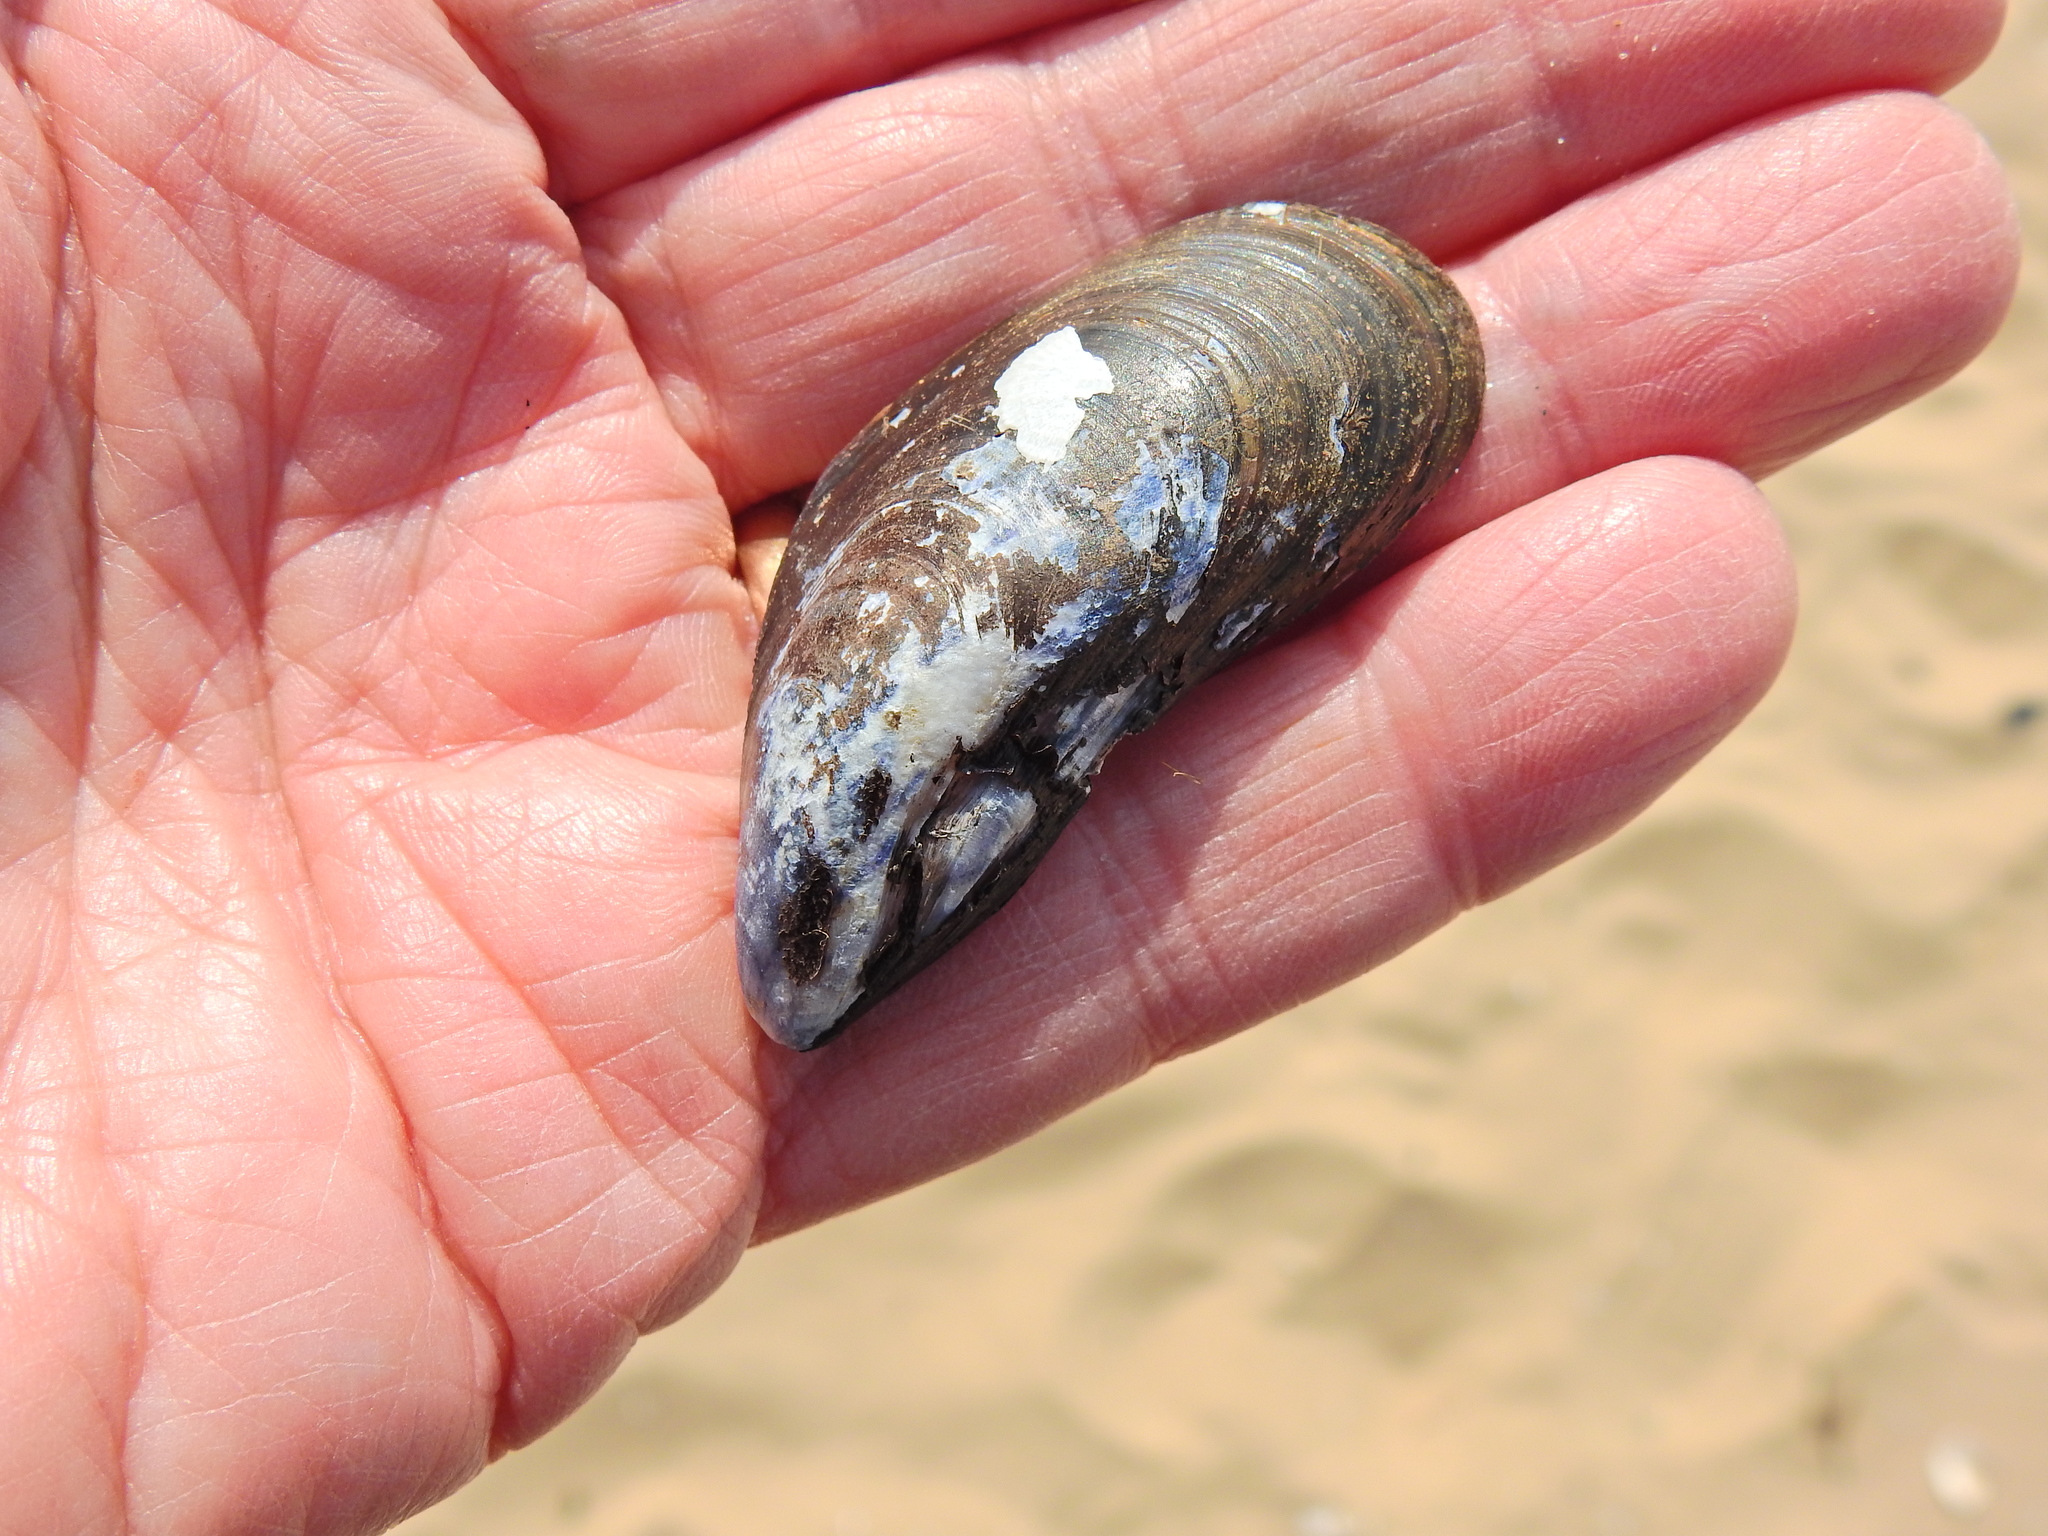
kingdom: Animalia
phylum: Mollusca
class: Bivalvia
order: Mytilida
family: Mytilidae
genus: Mytilus
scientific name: Mytilus edulis
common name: Blue mussel
